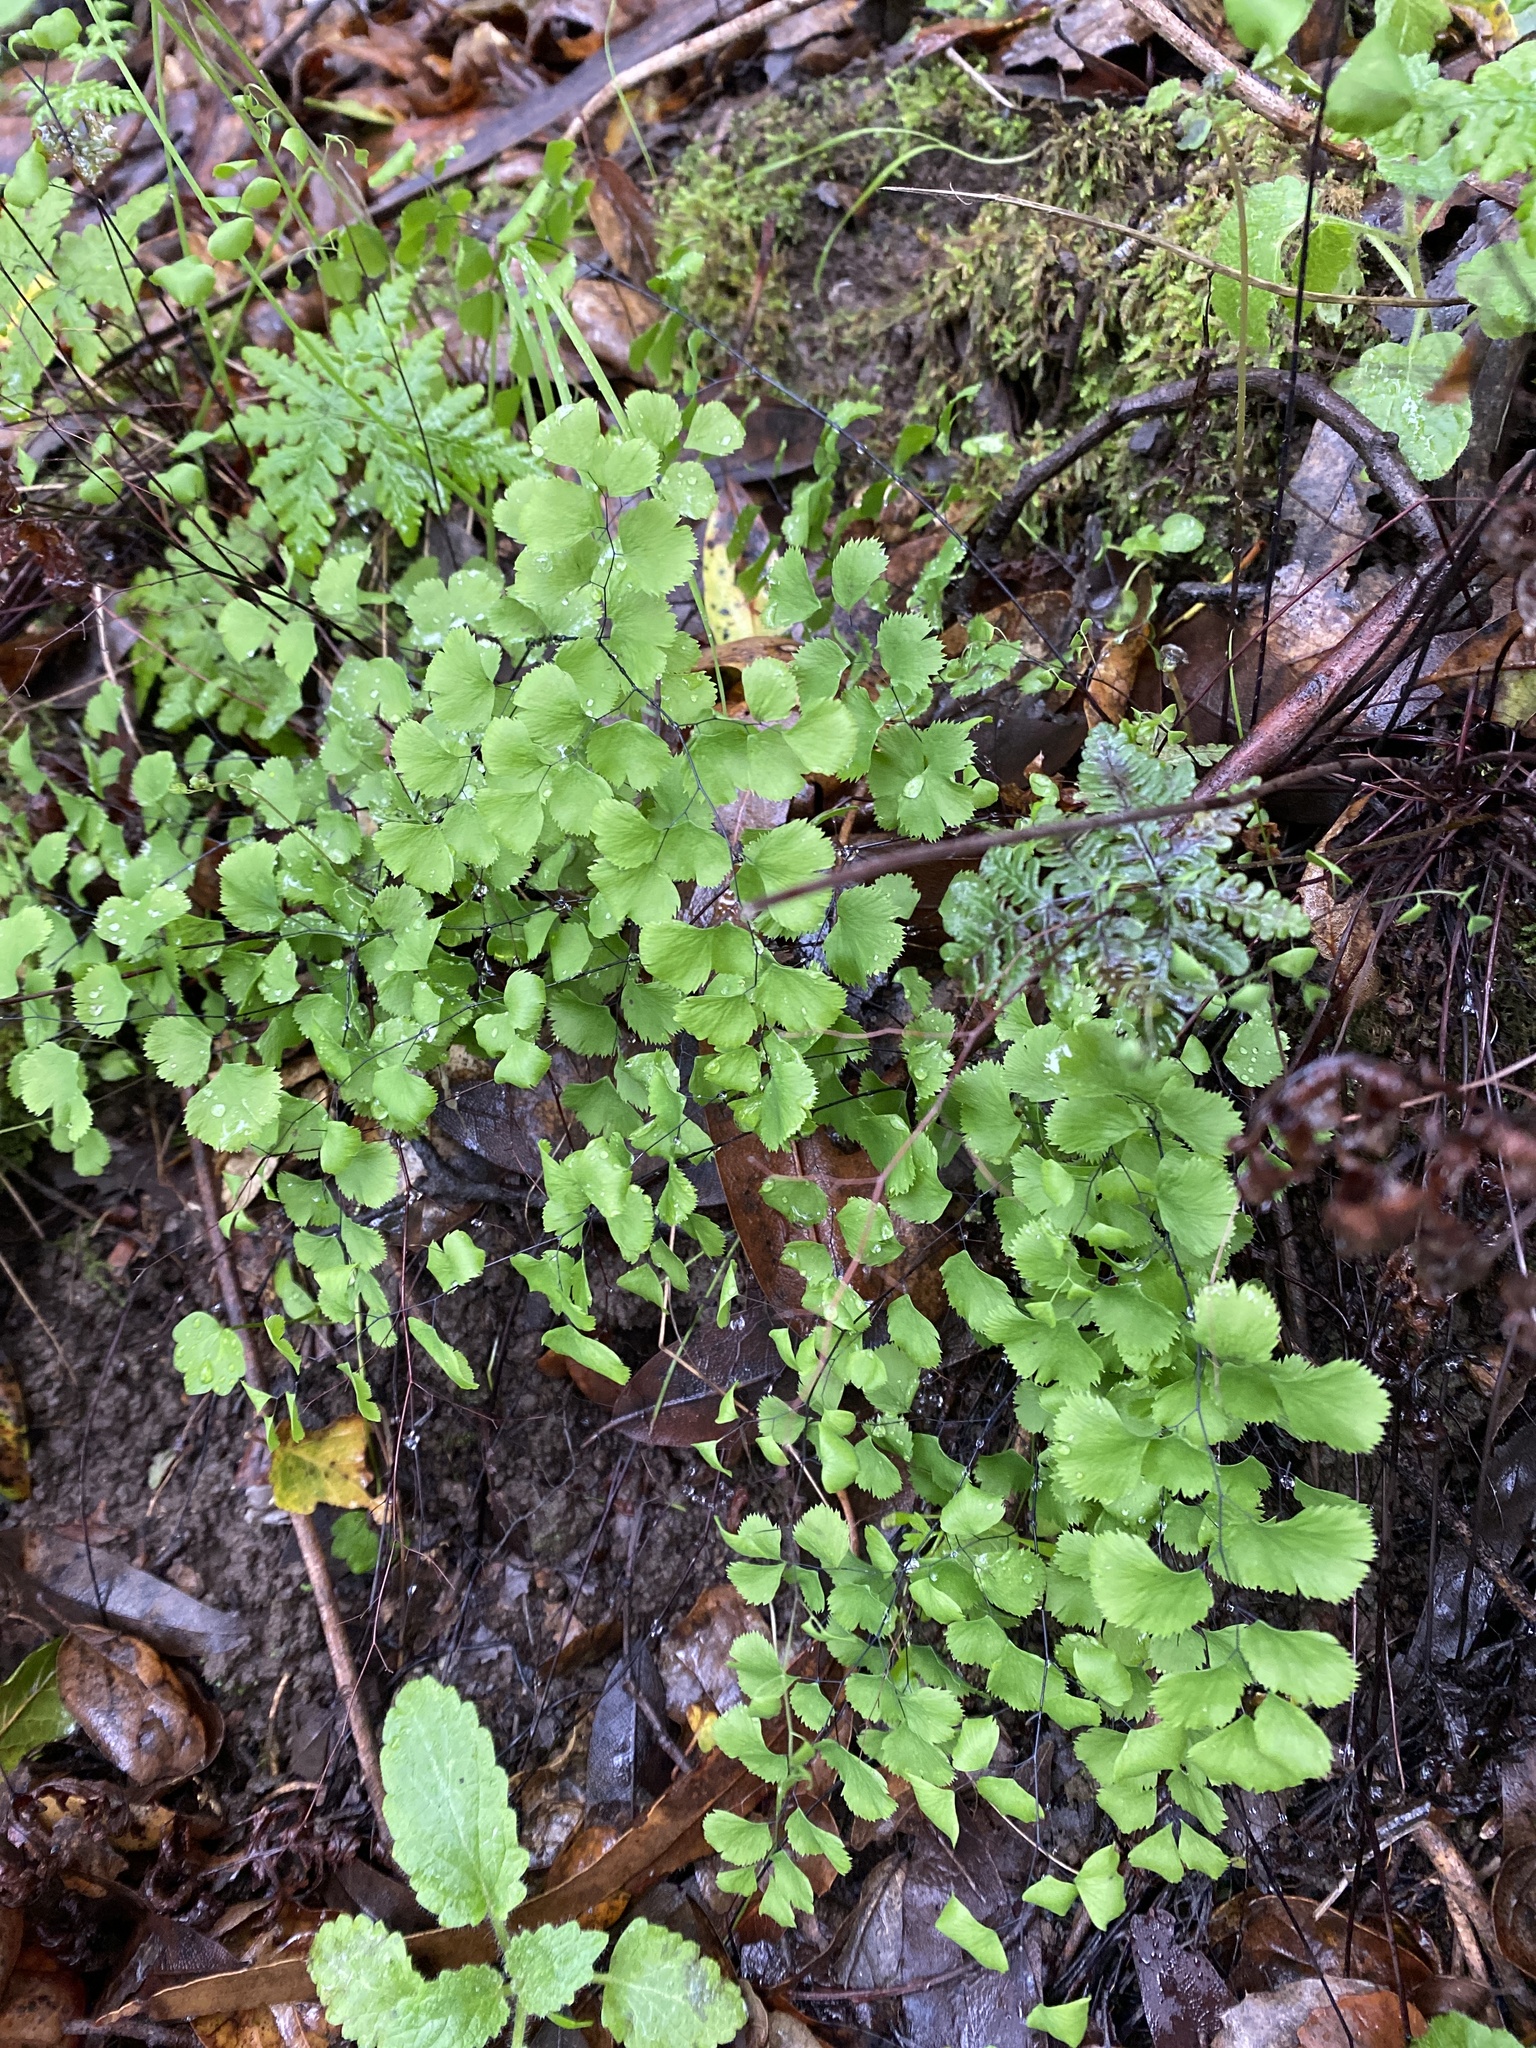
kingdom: Plantae
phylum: Tracheophyta
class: Polypodiopsida
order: Polypodiales
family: Pteridaceae
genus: Adiantum
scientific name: Adiantum jordanii
